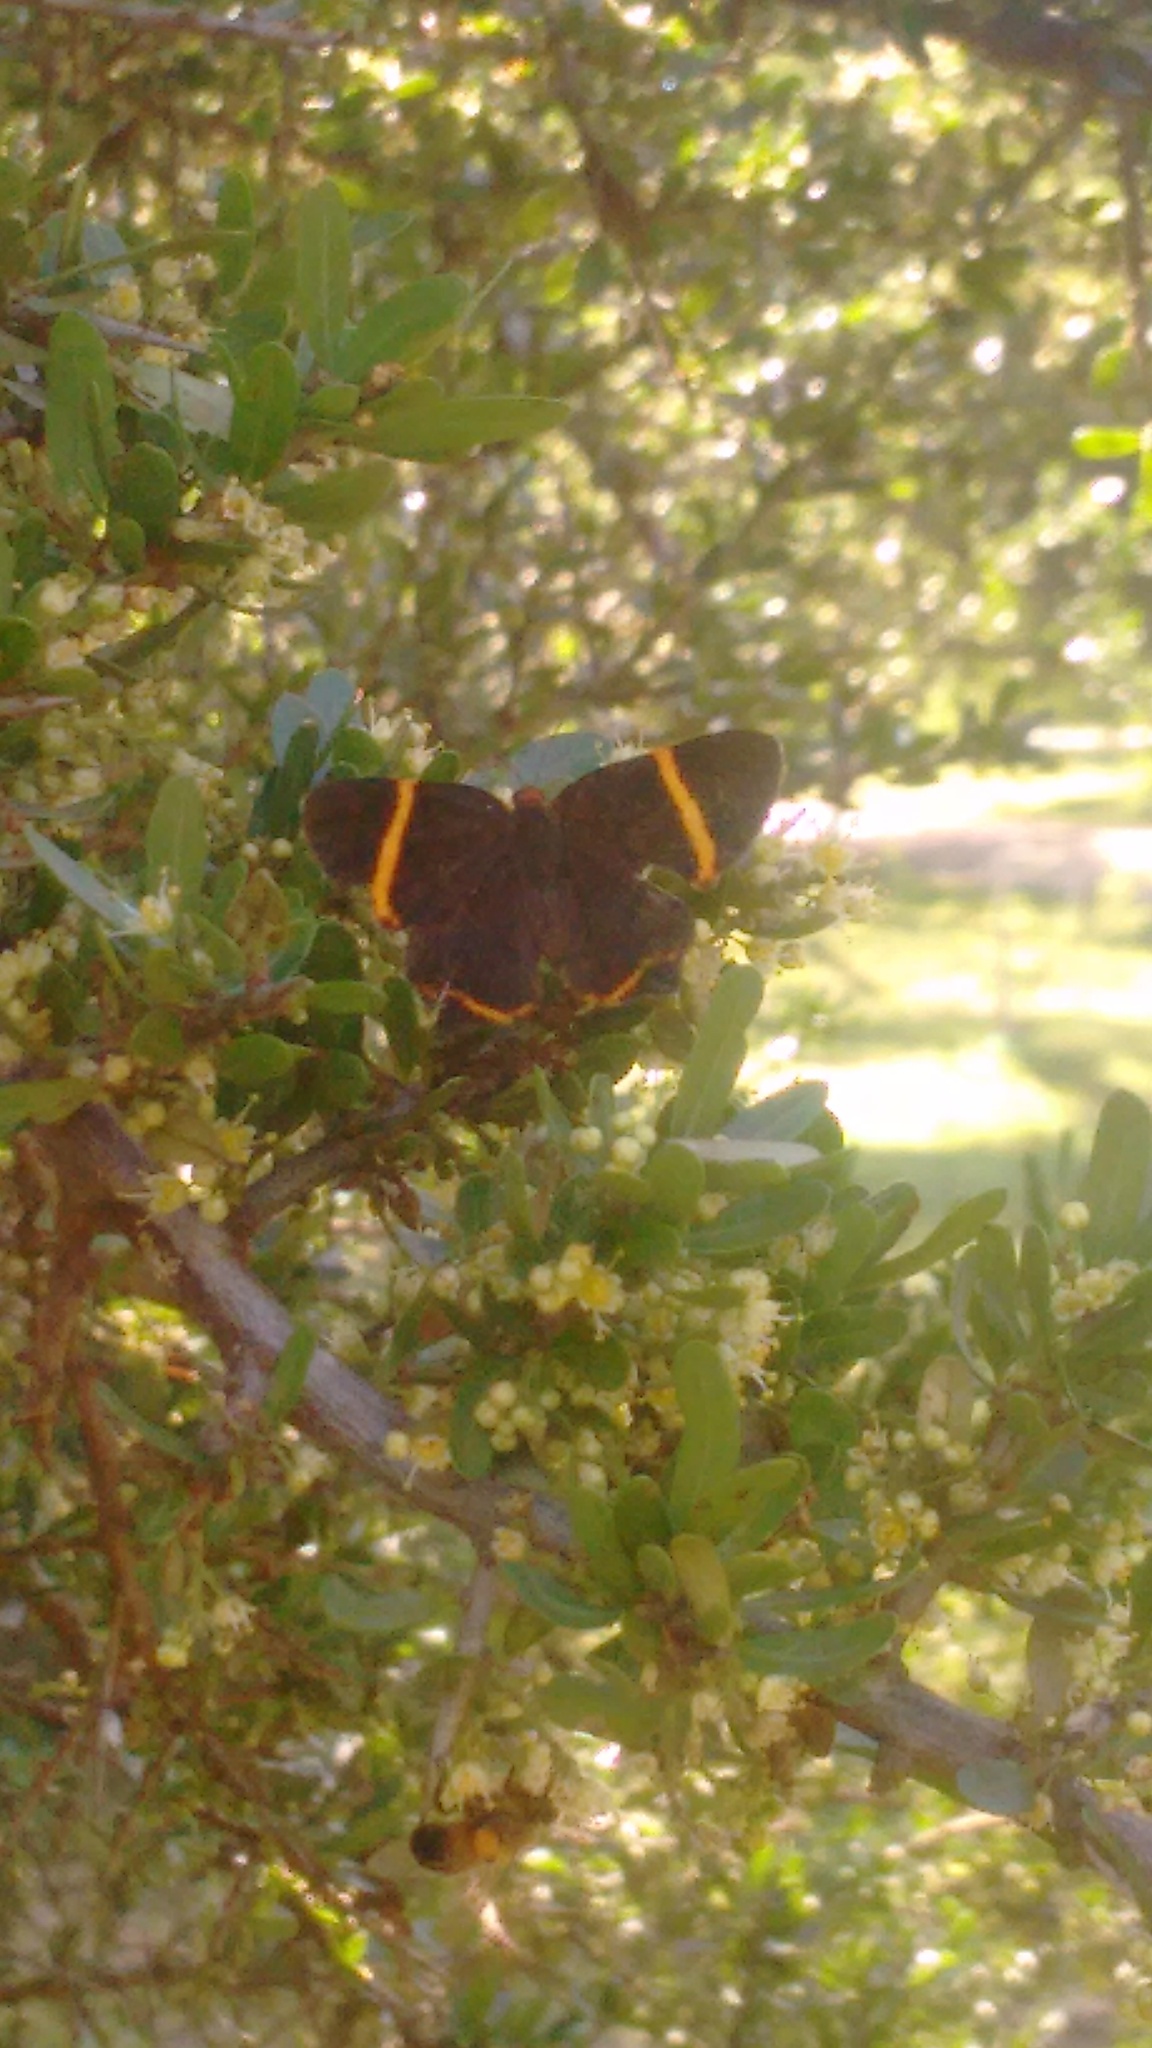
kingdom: Animalia
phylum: Arthropoda
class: Insecta
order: Lepidoptera
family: Riodinidae
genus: Riodina
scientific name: Riodina lysippoides
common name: Little dancer metalmark
